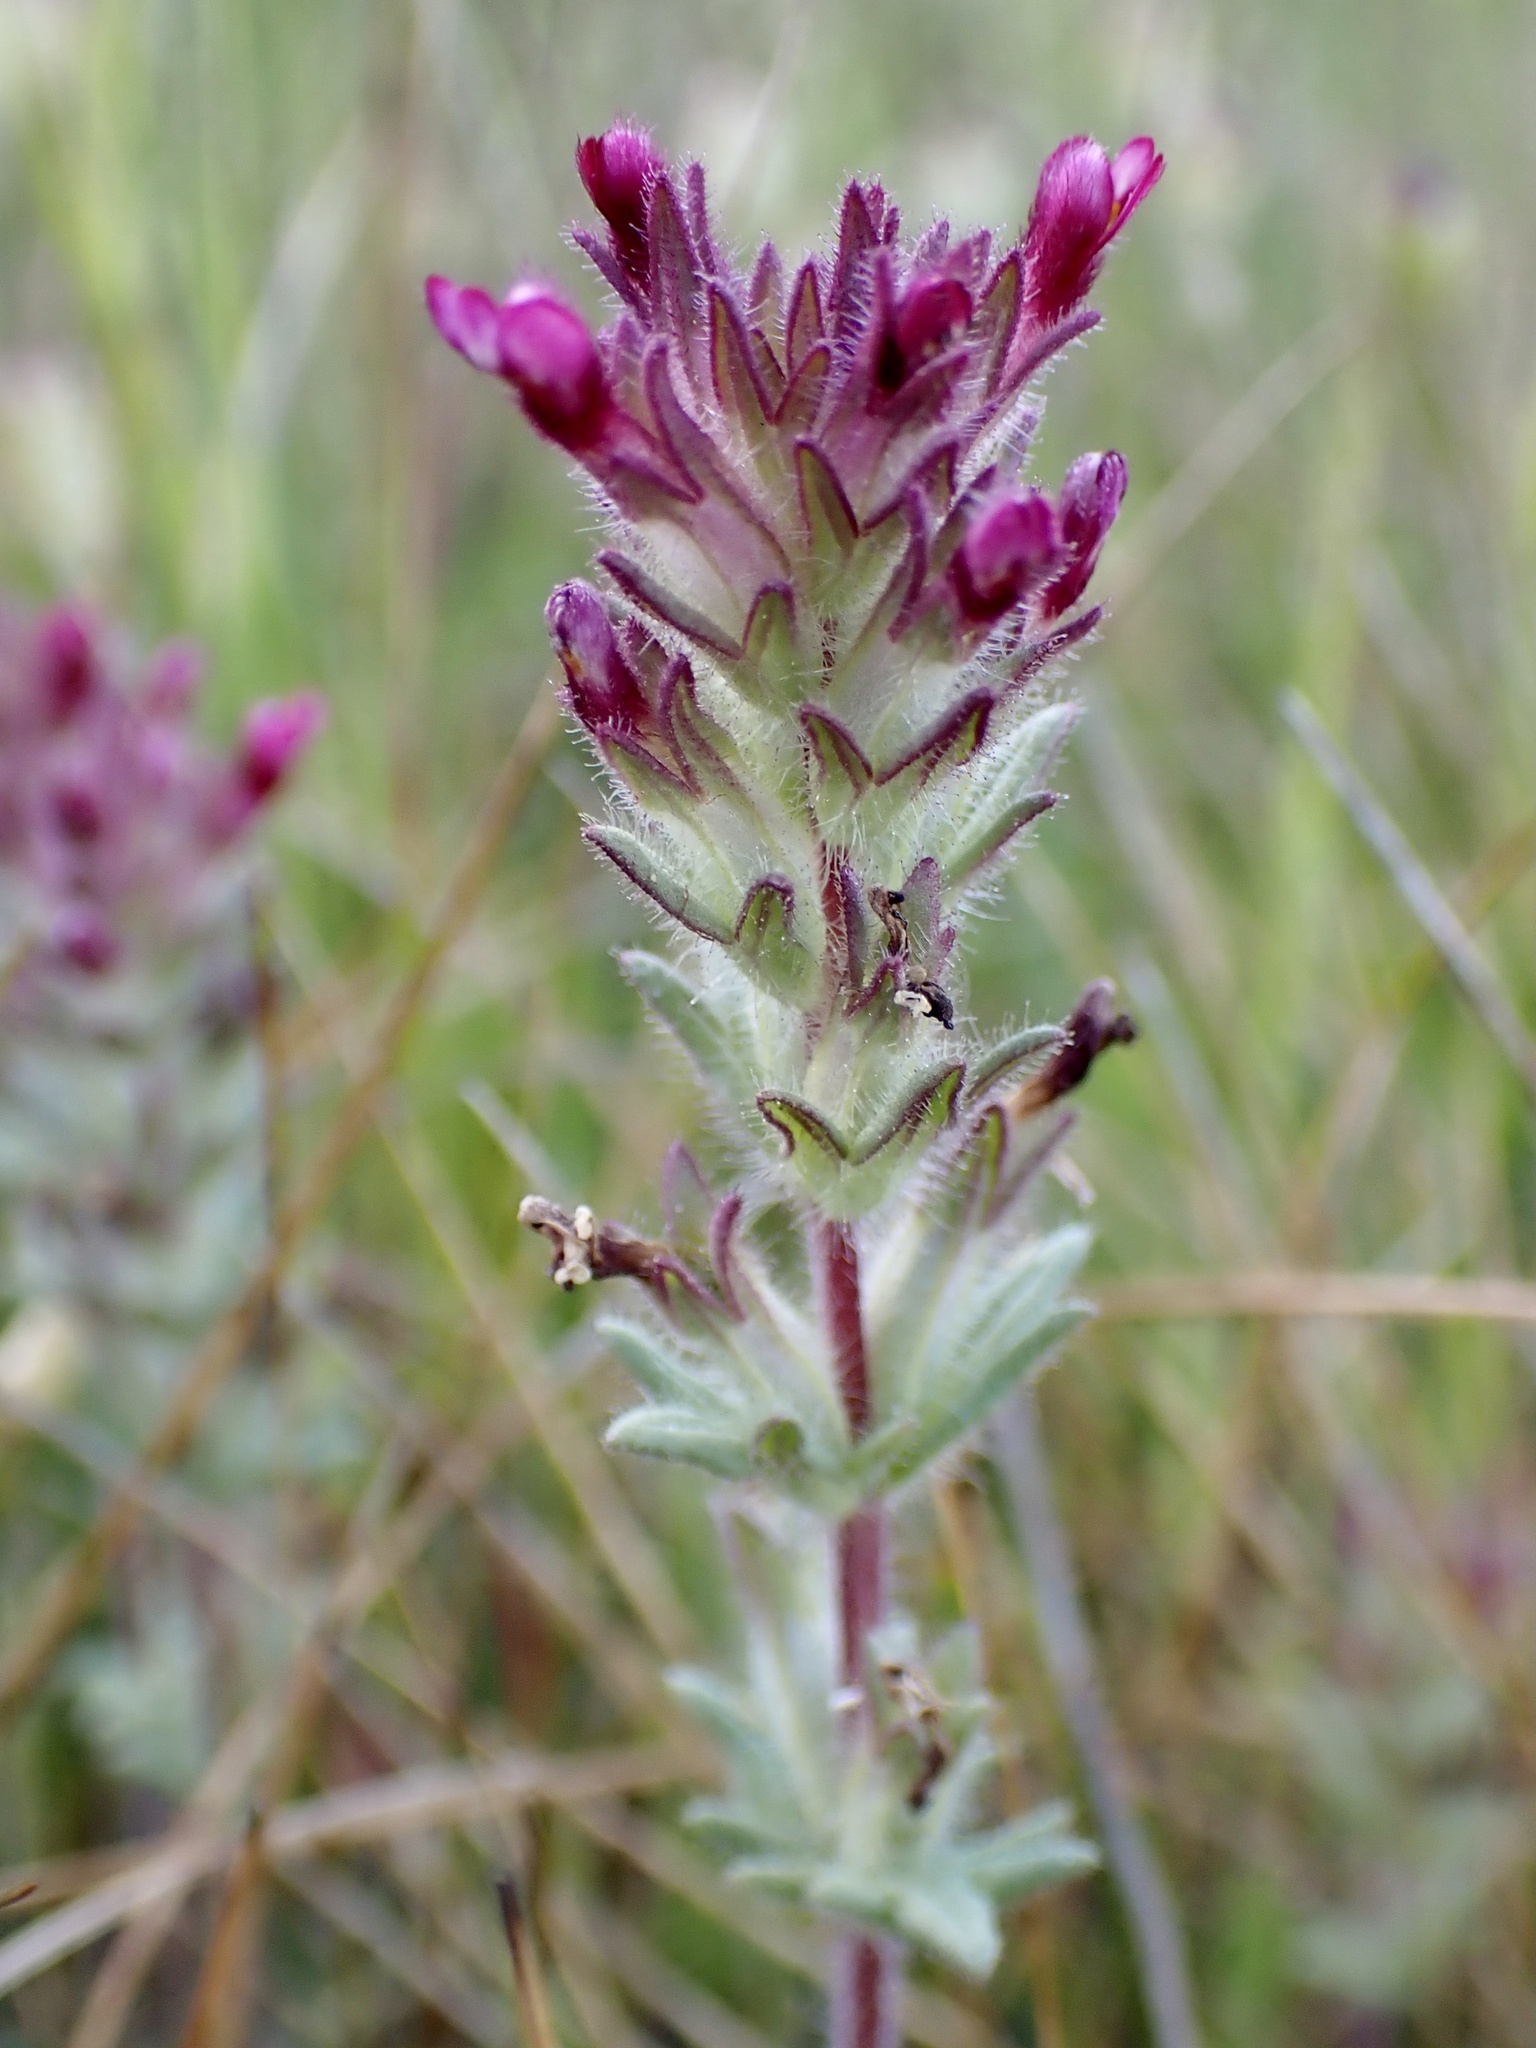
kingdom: Plantae
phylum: Tracheophyta
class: Magnoliopsida
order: Lamiales
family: Orobanchaceae
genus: Parentucellia
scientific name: Parentucellia latifolia
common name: Broadleaf glandweed
